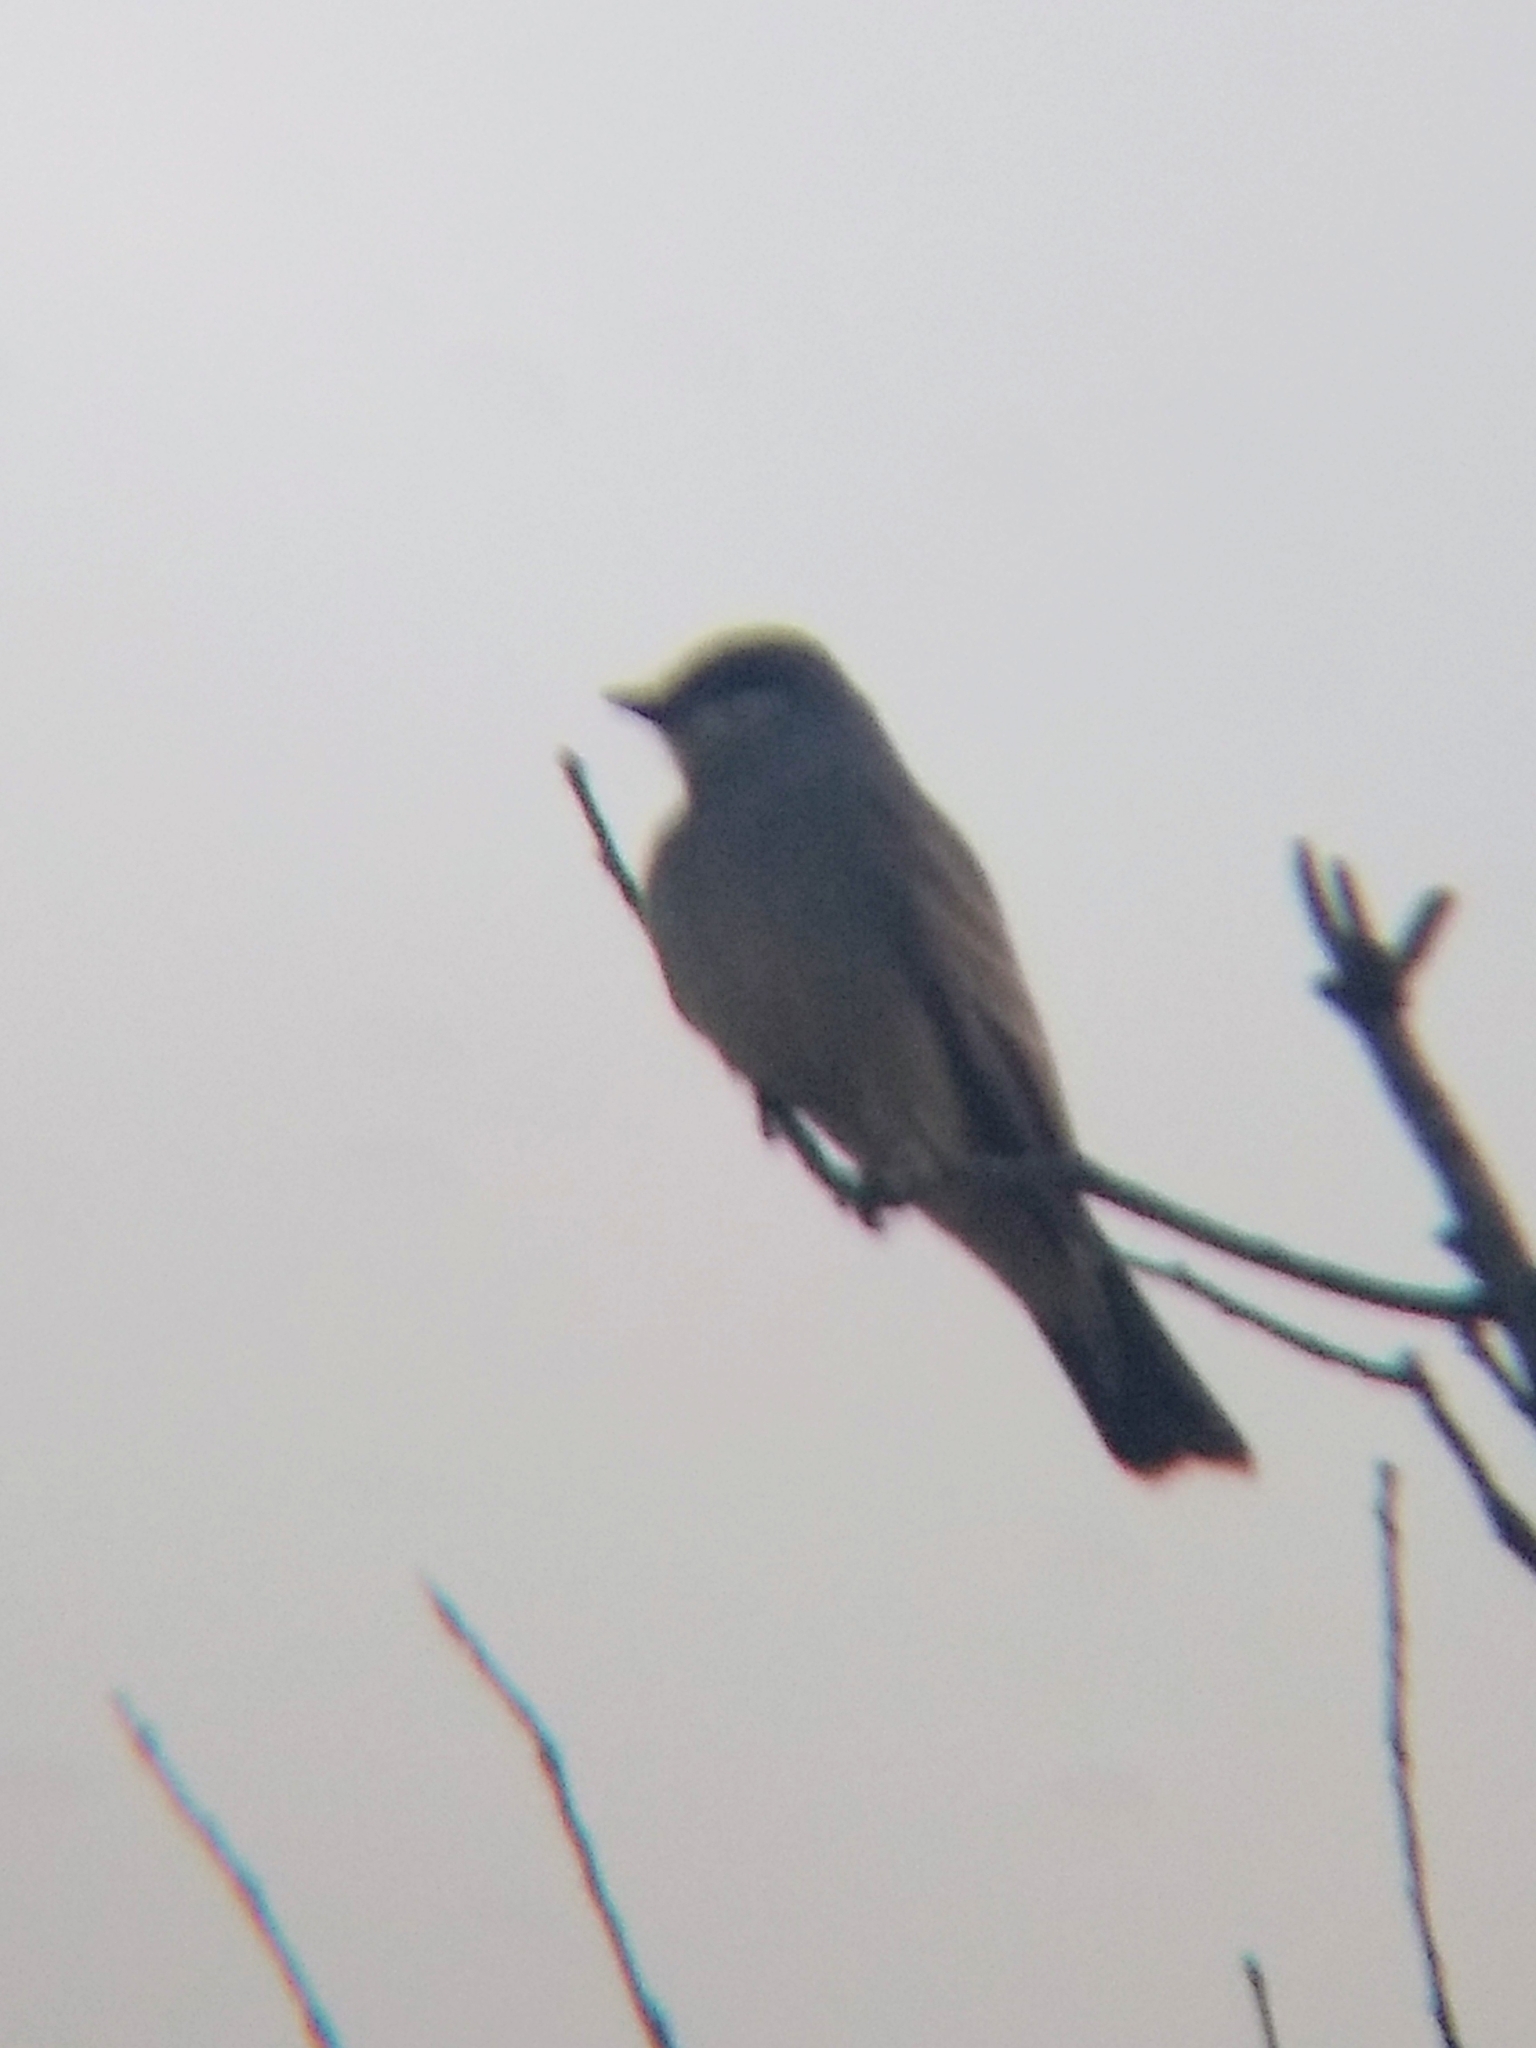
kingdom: Animalia
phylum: Chordata
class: Aves
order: Passeriformes
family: Tyrannidae
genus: Tyrannus
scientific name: Tyrannus vociferans
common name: Cassin's kingbird
